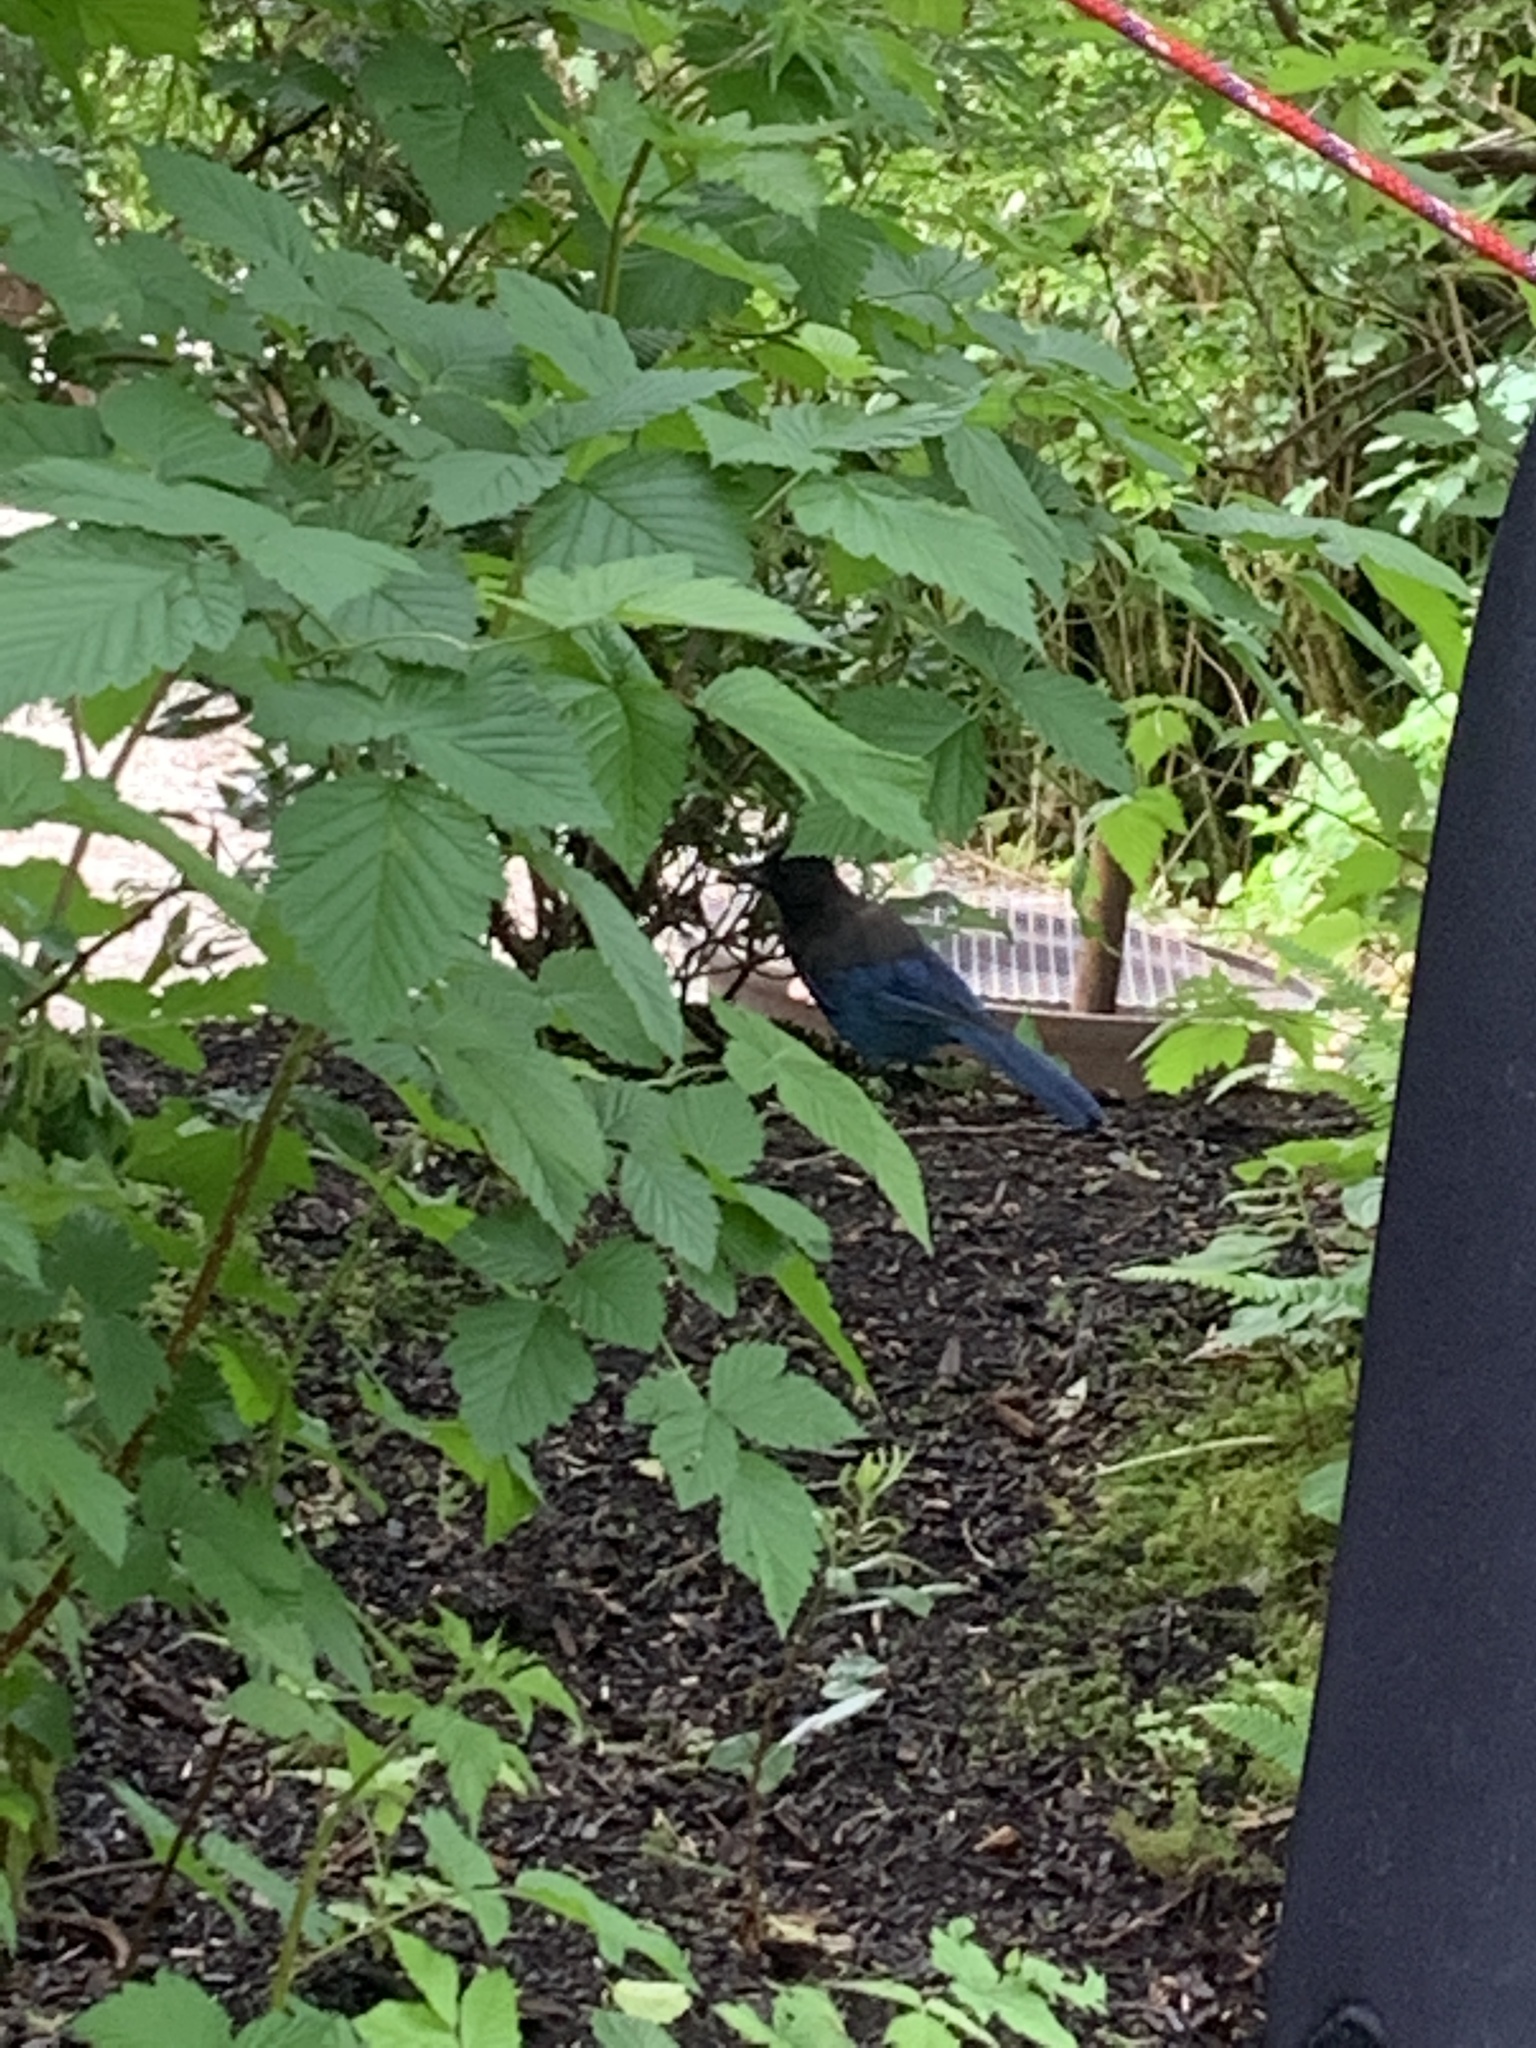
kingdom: Animalia
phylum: Chordata
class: Aves
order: Passeriformes
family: Corvidae
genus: Cyanocitta
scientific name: Cyanocitta stelleri
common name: Steller's jay
